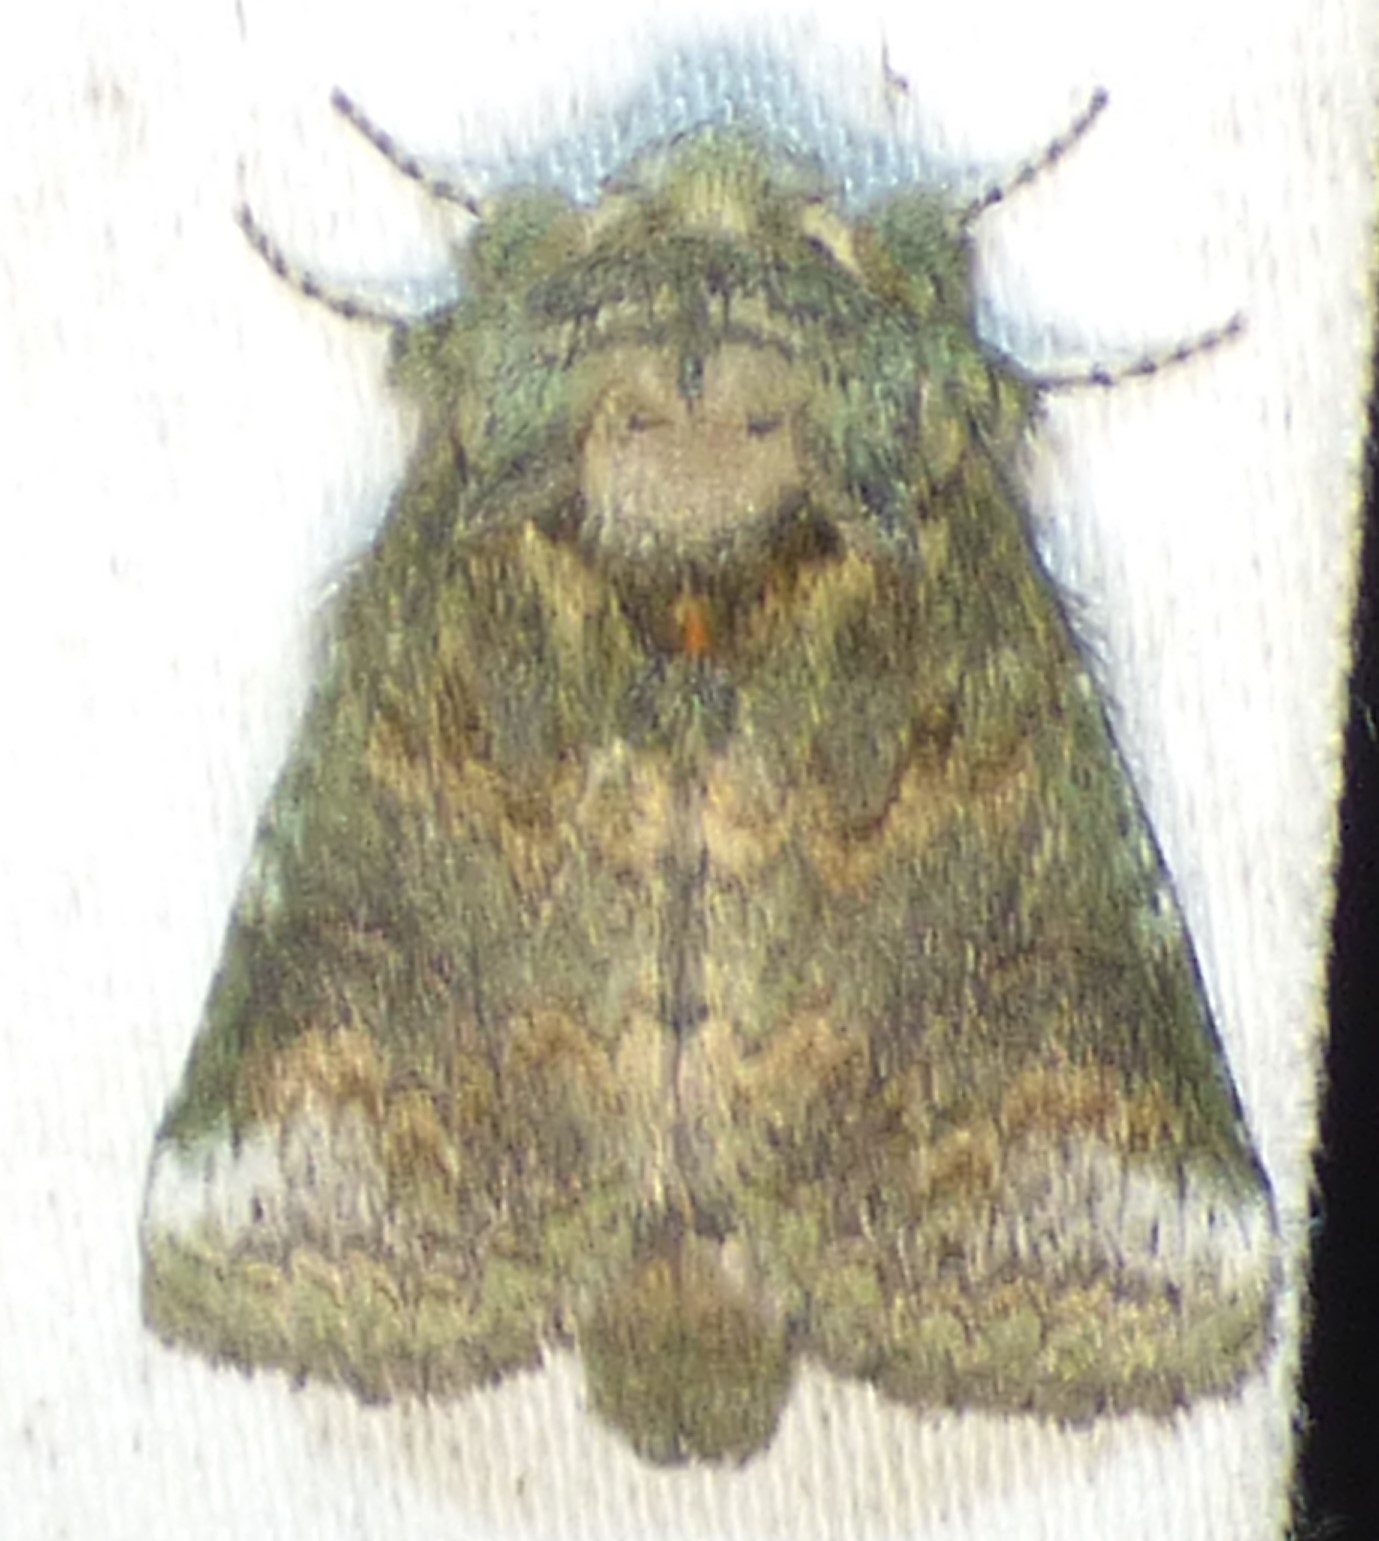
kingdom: Animalia
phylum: Arthropoda
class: Insecta
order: Lepidoptera
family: Notodontidae
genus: Disphragis
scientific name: Disphragis Cecrita biundata
